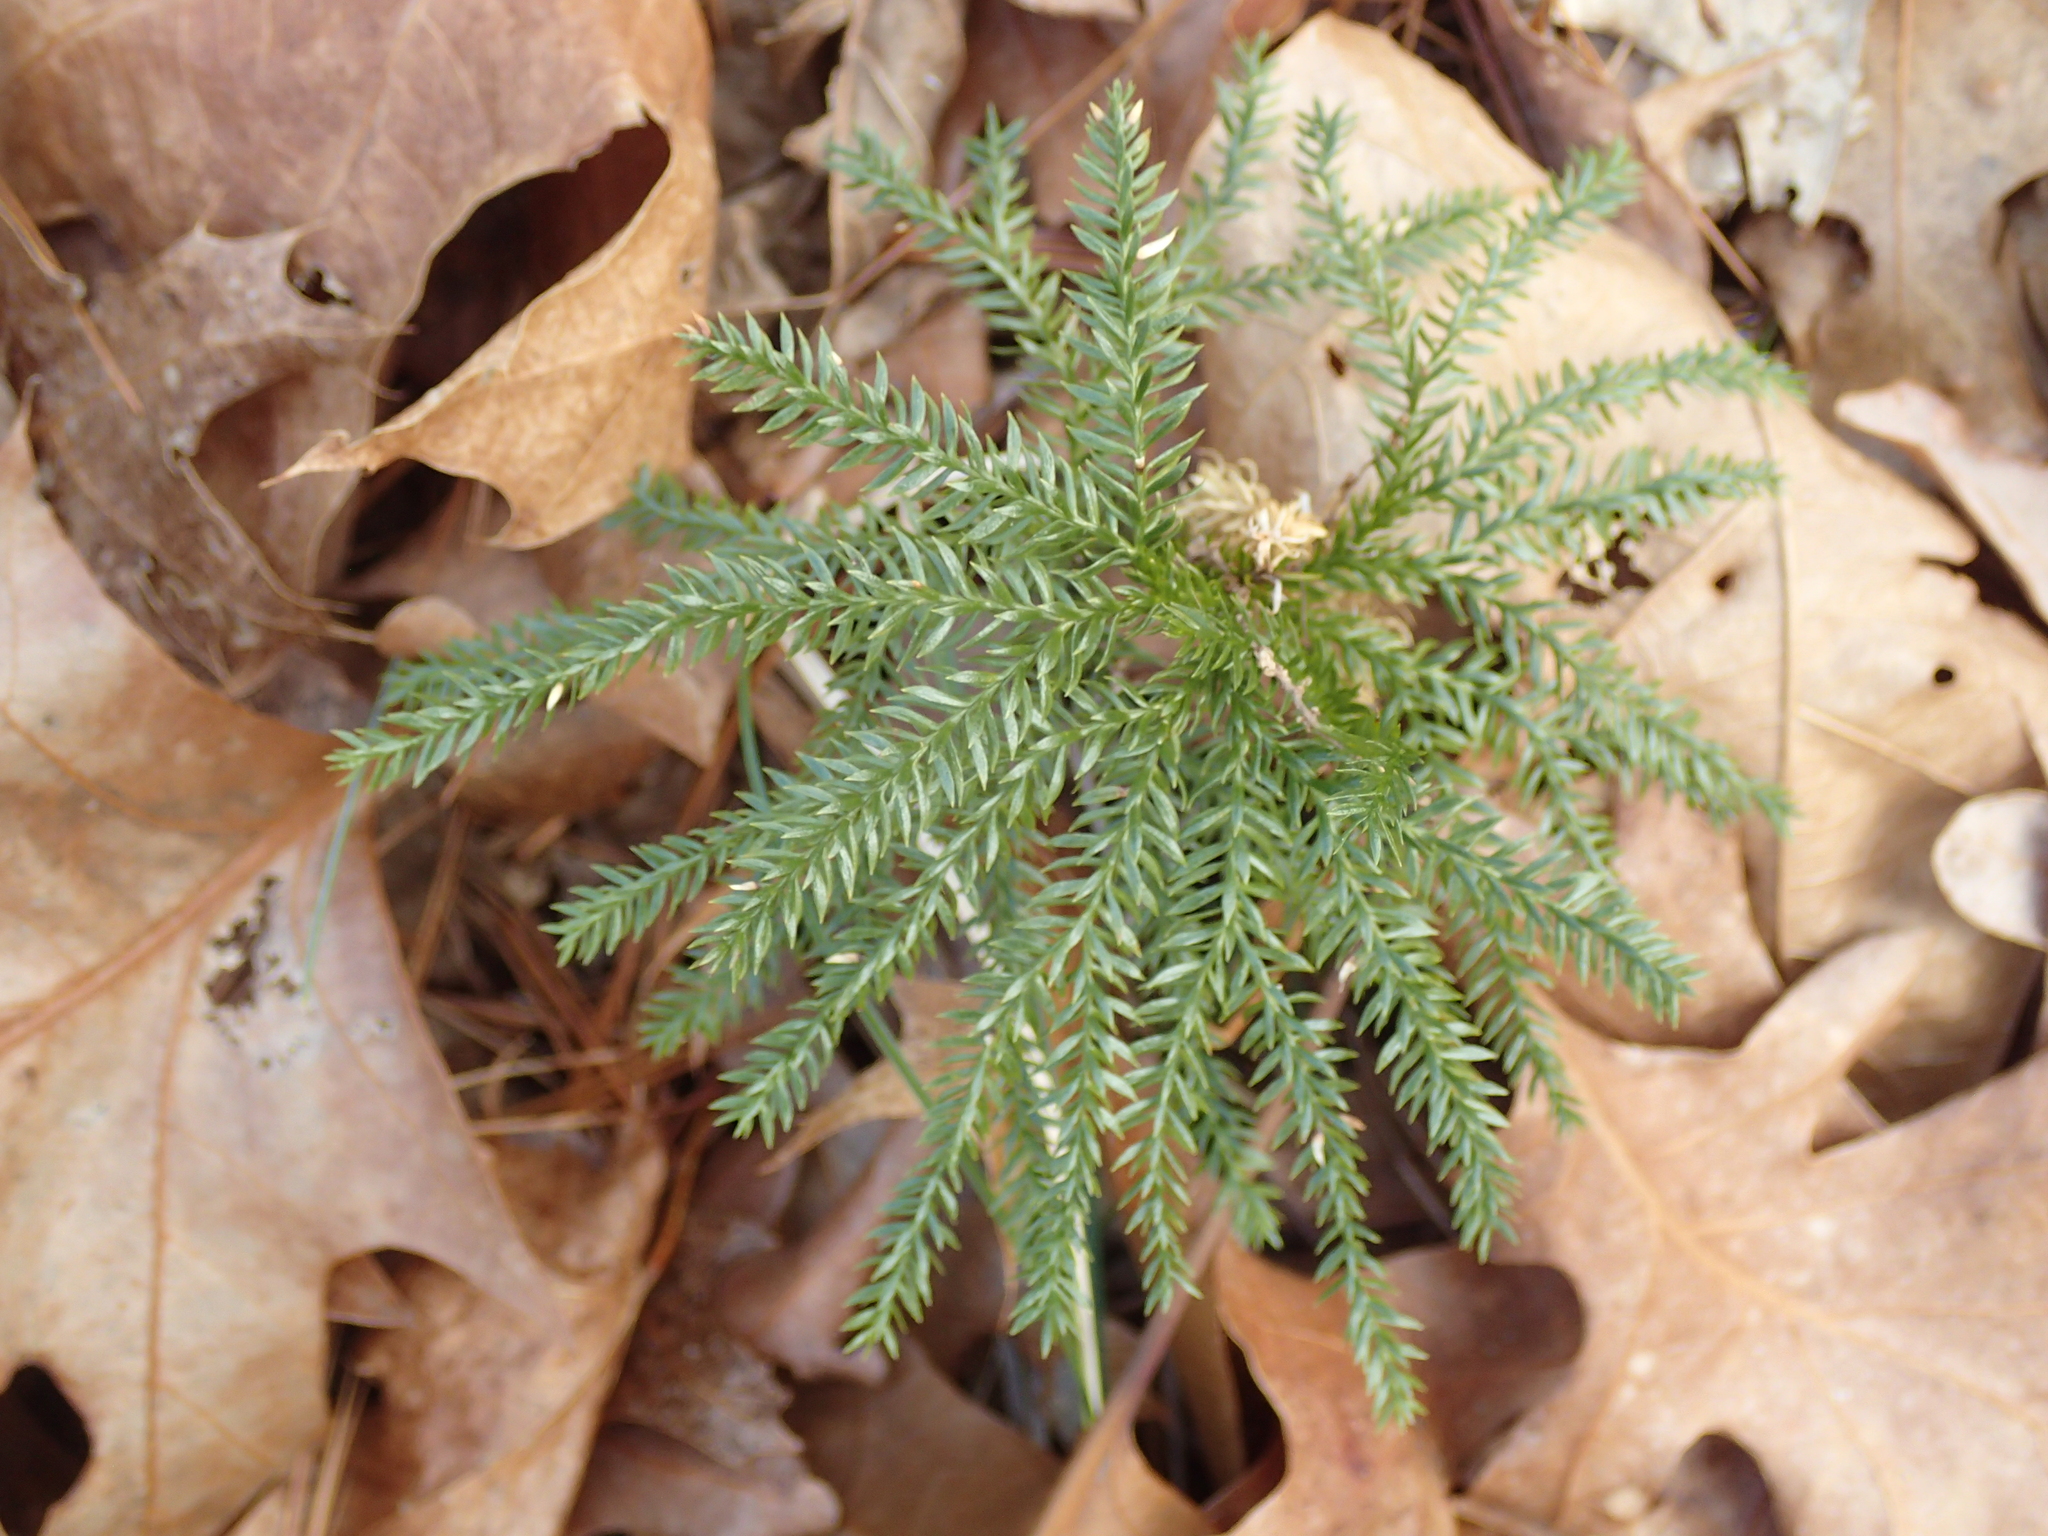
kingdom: Plantae
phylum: Tracheophyta
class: Lycopodiopsida
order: Lycopodiales
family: Lycopodiaceae
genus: Dendrolycopodium
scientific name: Dendrolycopodium obscurum
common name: Common ground-pine
